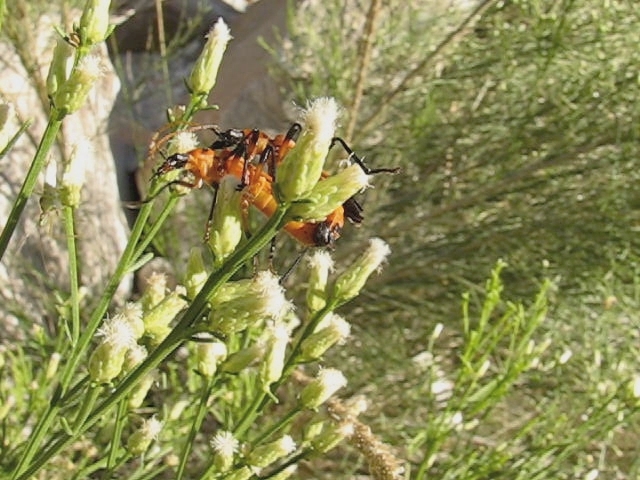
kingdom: Animalia
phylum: Arthropoda
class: Insecta
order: Coleoptera
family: Cantharidae
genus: Chauliognathus
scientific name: Chauliognathus profundus
